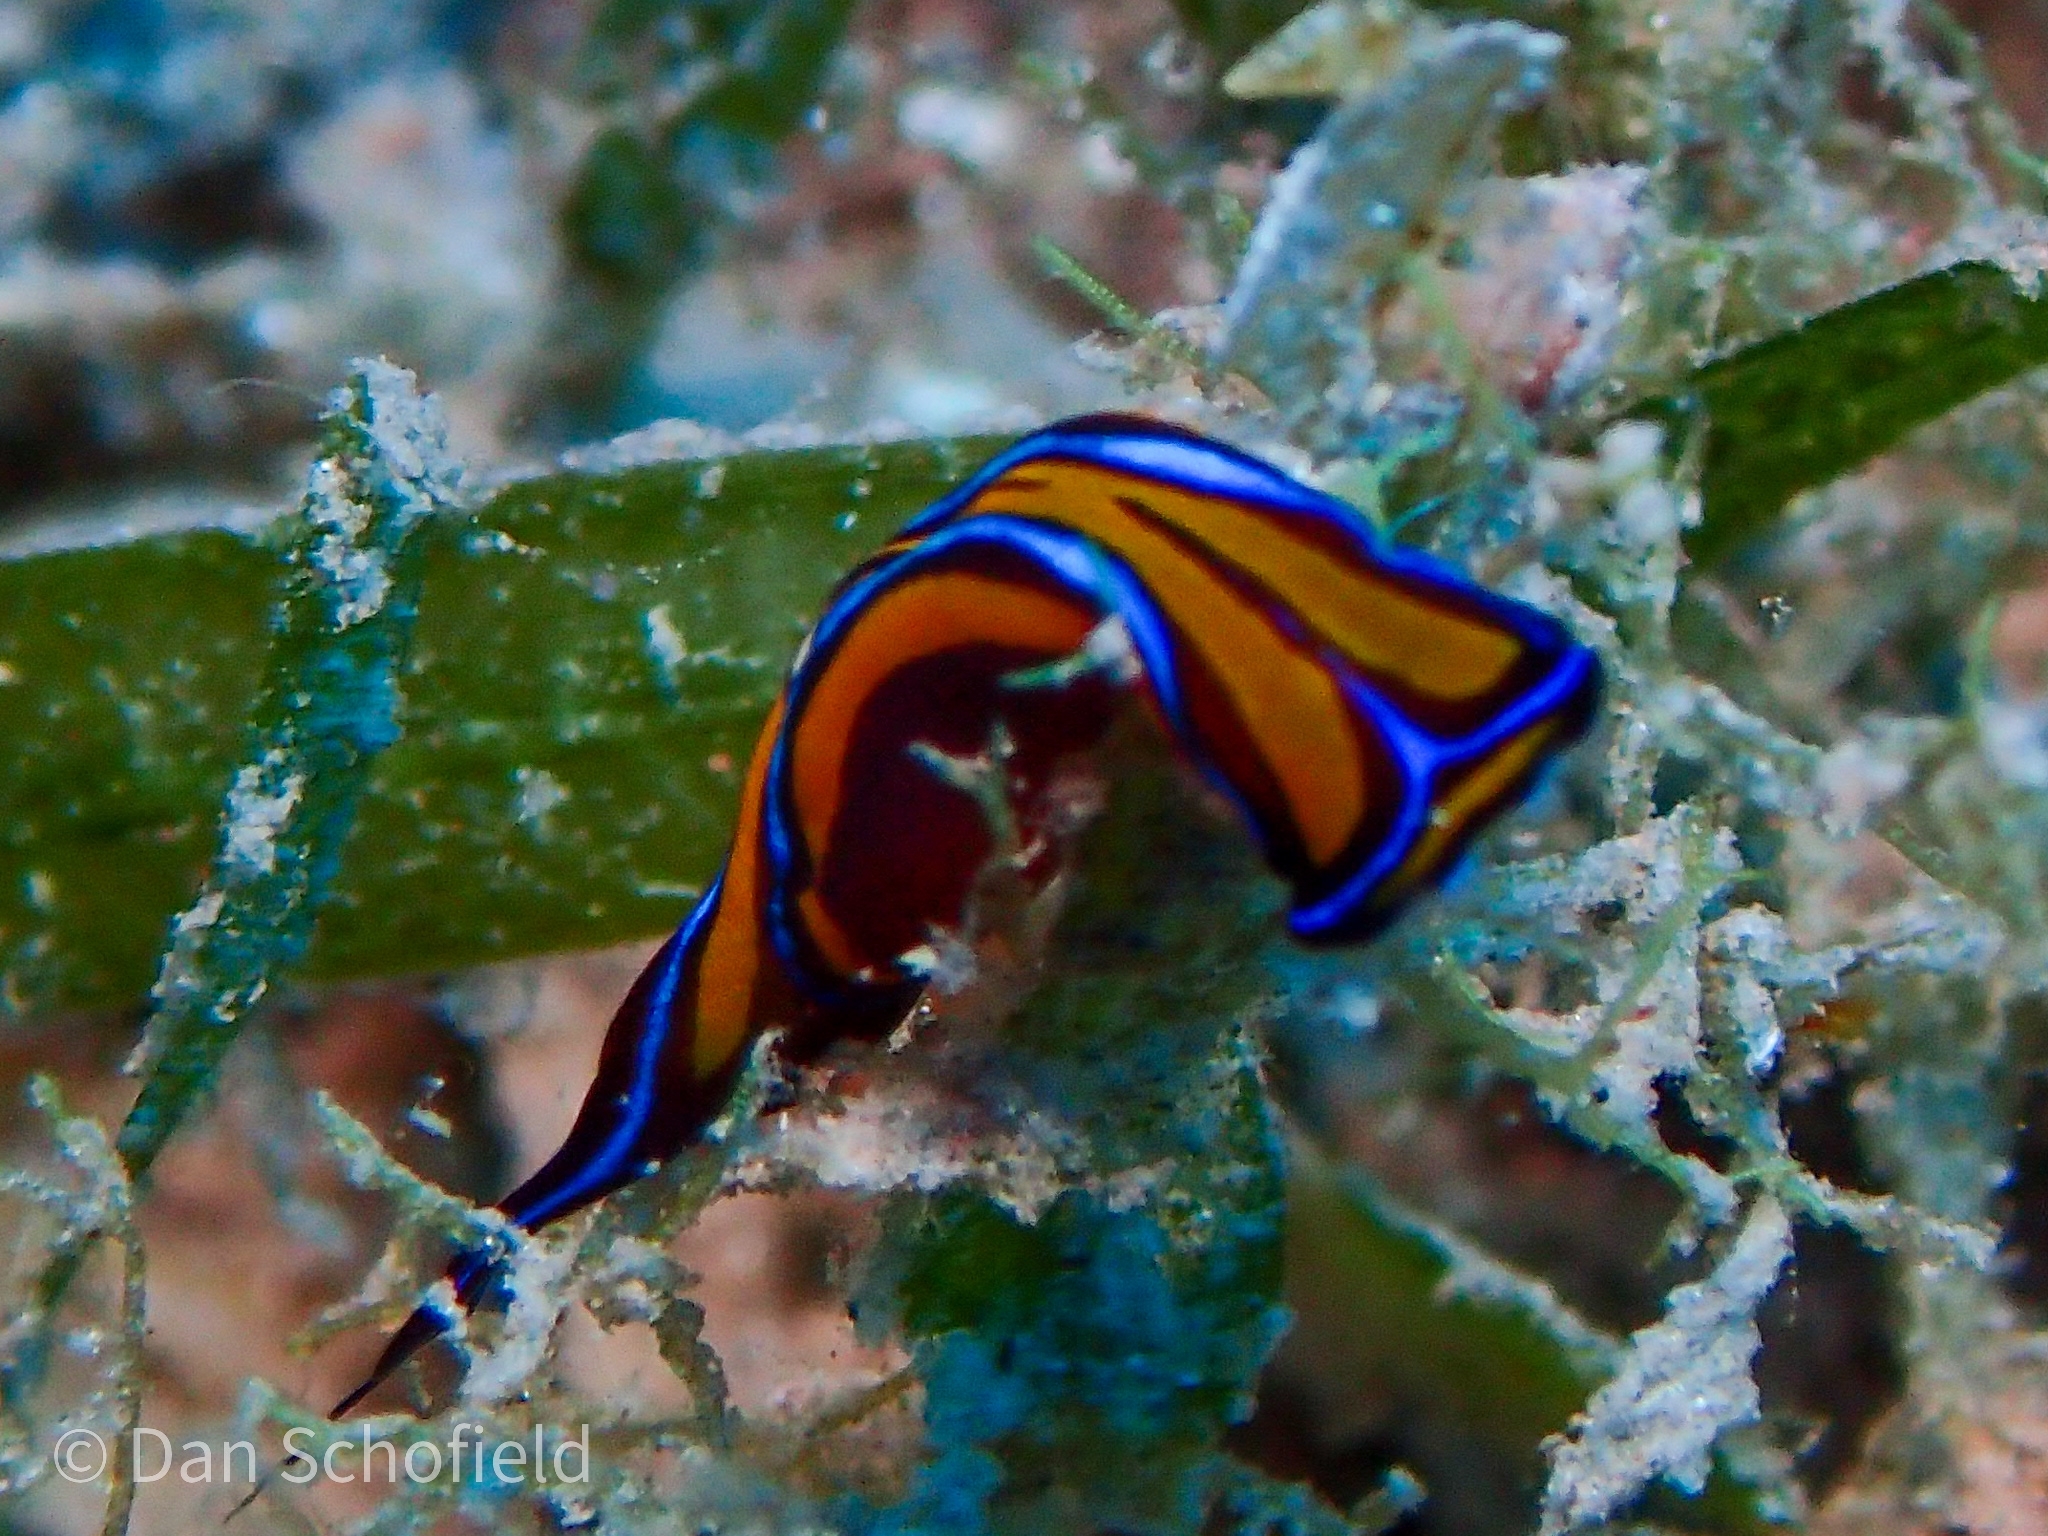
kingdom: Animalia
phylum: Mollusca
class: Gastropoda
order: Cephalaspidea
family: Aglajidae
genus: Chelidonura
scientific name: Chelidonura hirundinina
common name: Leech headshield slug
